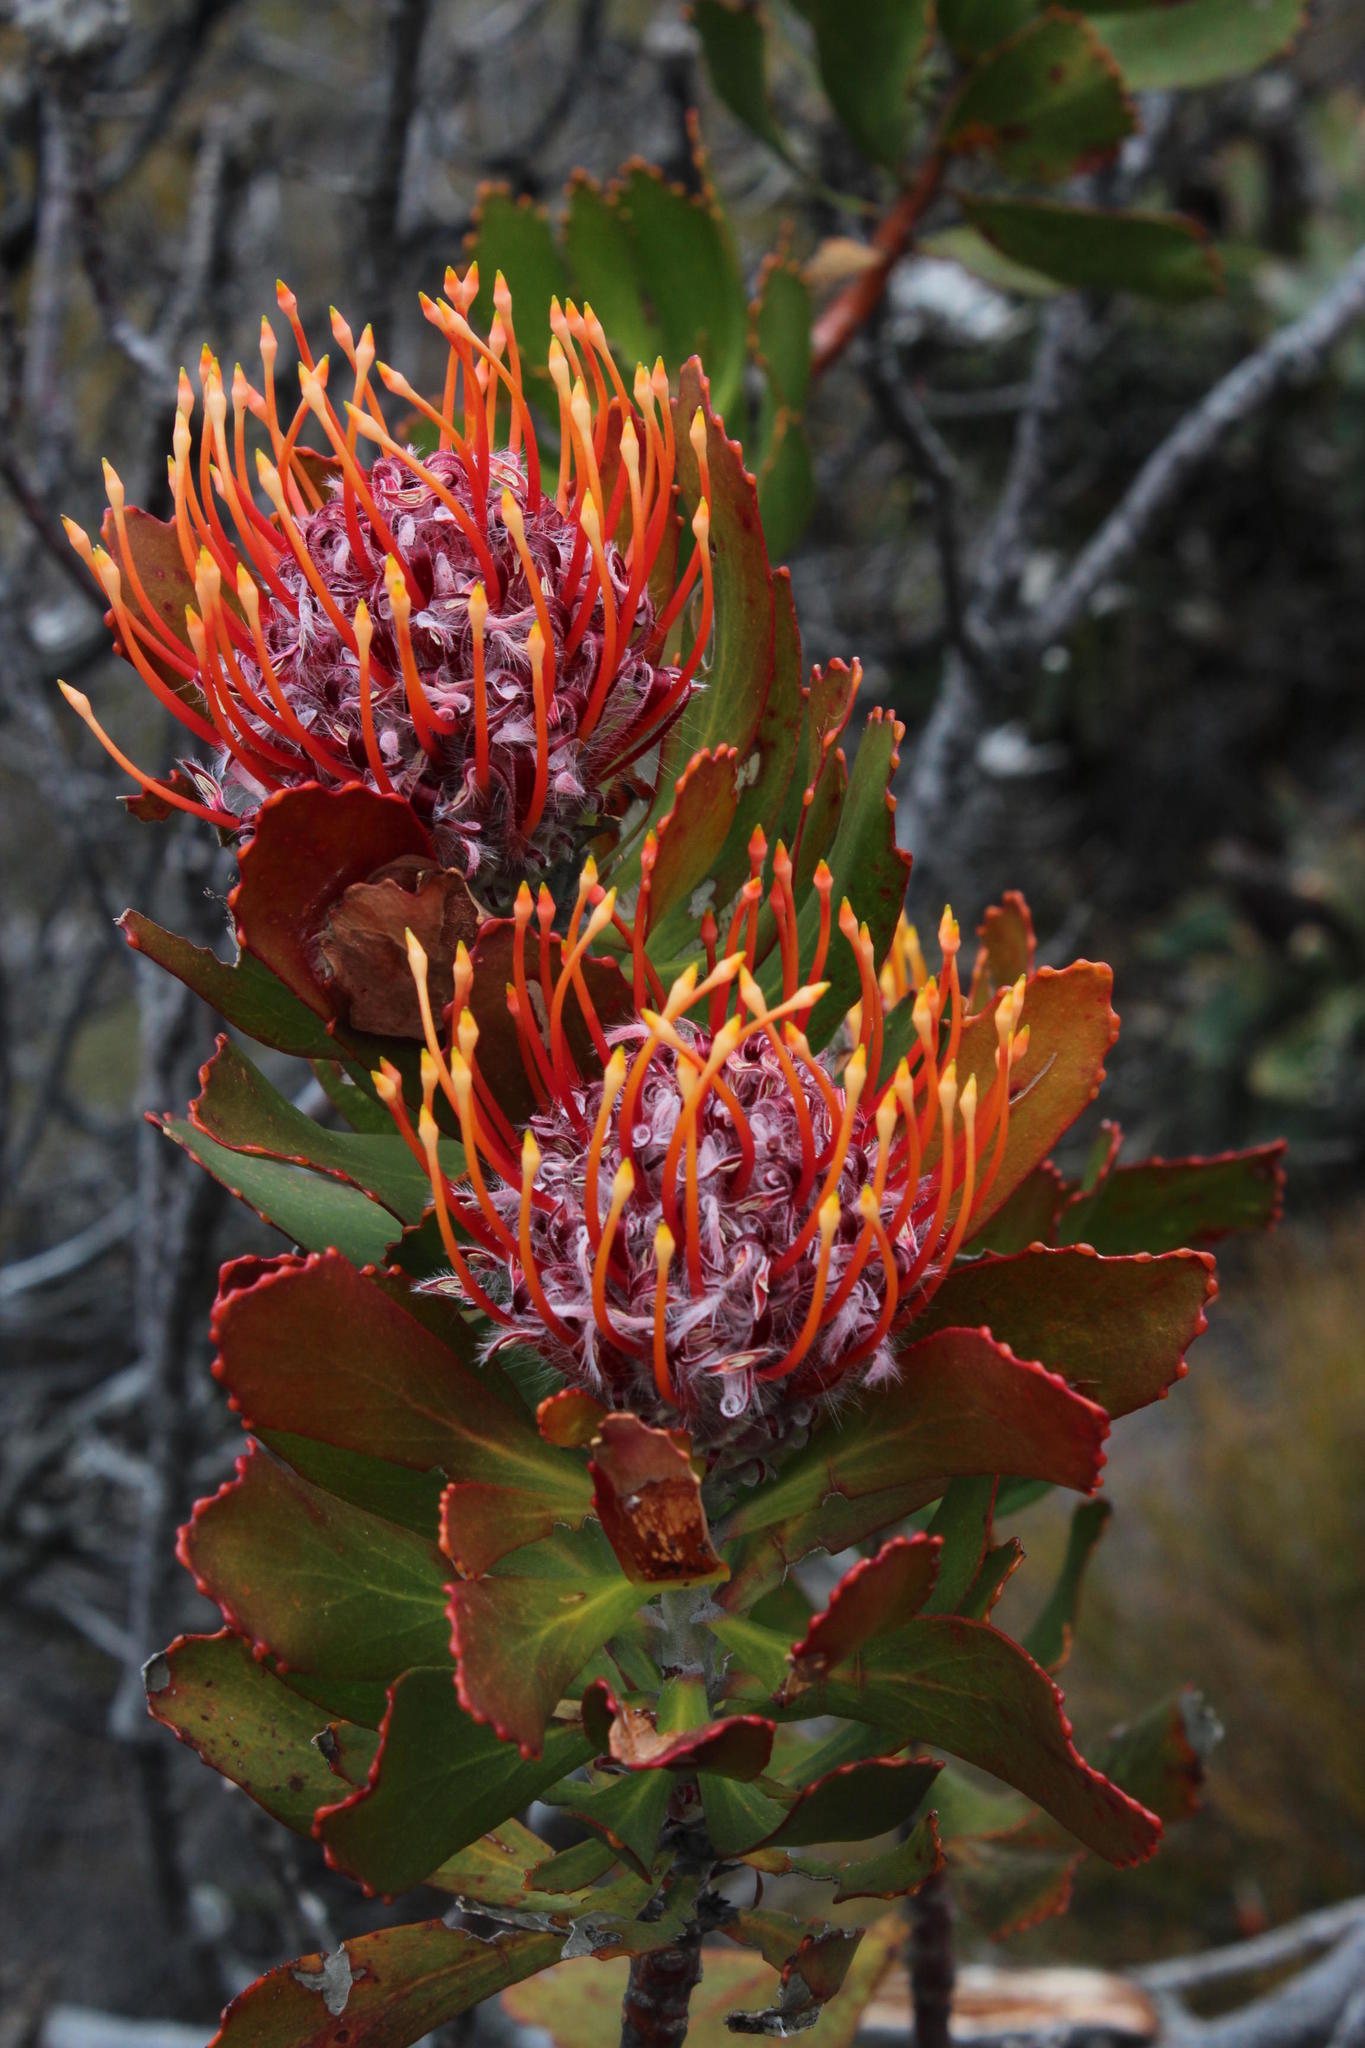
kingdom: Plantae
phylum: Tracheophyta
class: Magnoliopsida
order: Proteales
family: Proteaceae
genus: Leucospermum
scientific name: Leucospermum glabrum
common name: Outeniqua pincushion
